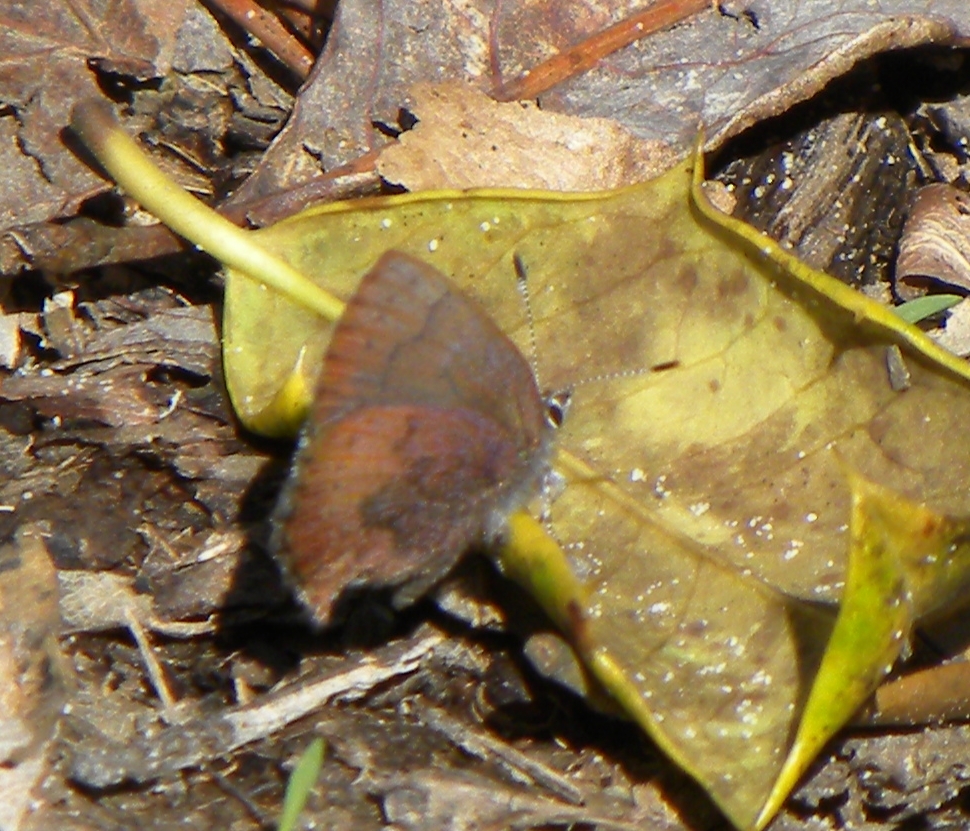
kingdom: Animalia
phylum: Arthropoda
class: Insecta
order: Lepidoptera
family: Lycaenidae
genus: Incisalia
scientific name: Incisalia irioides
